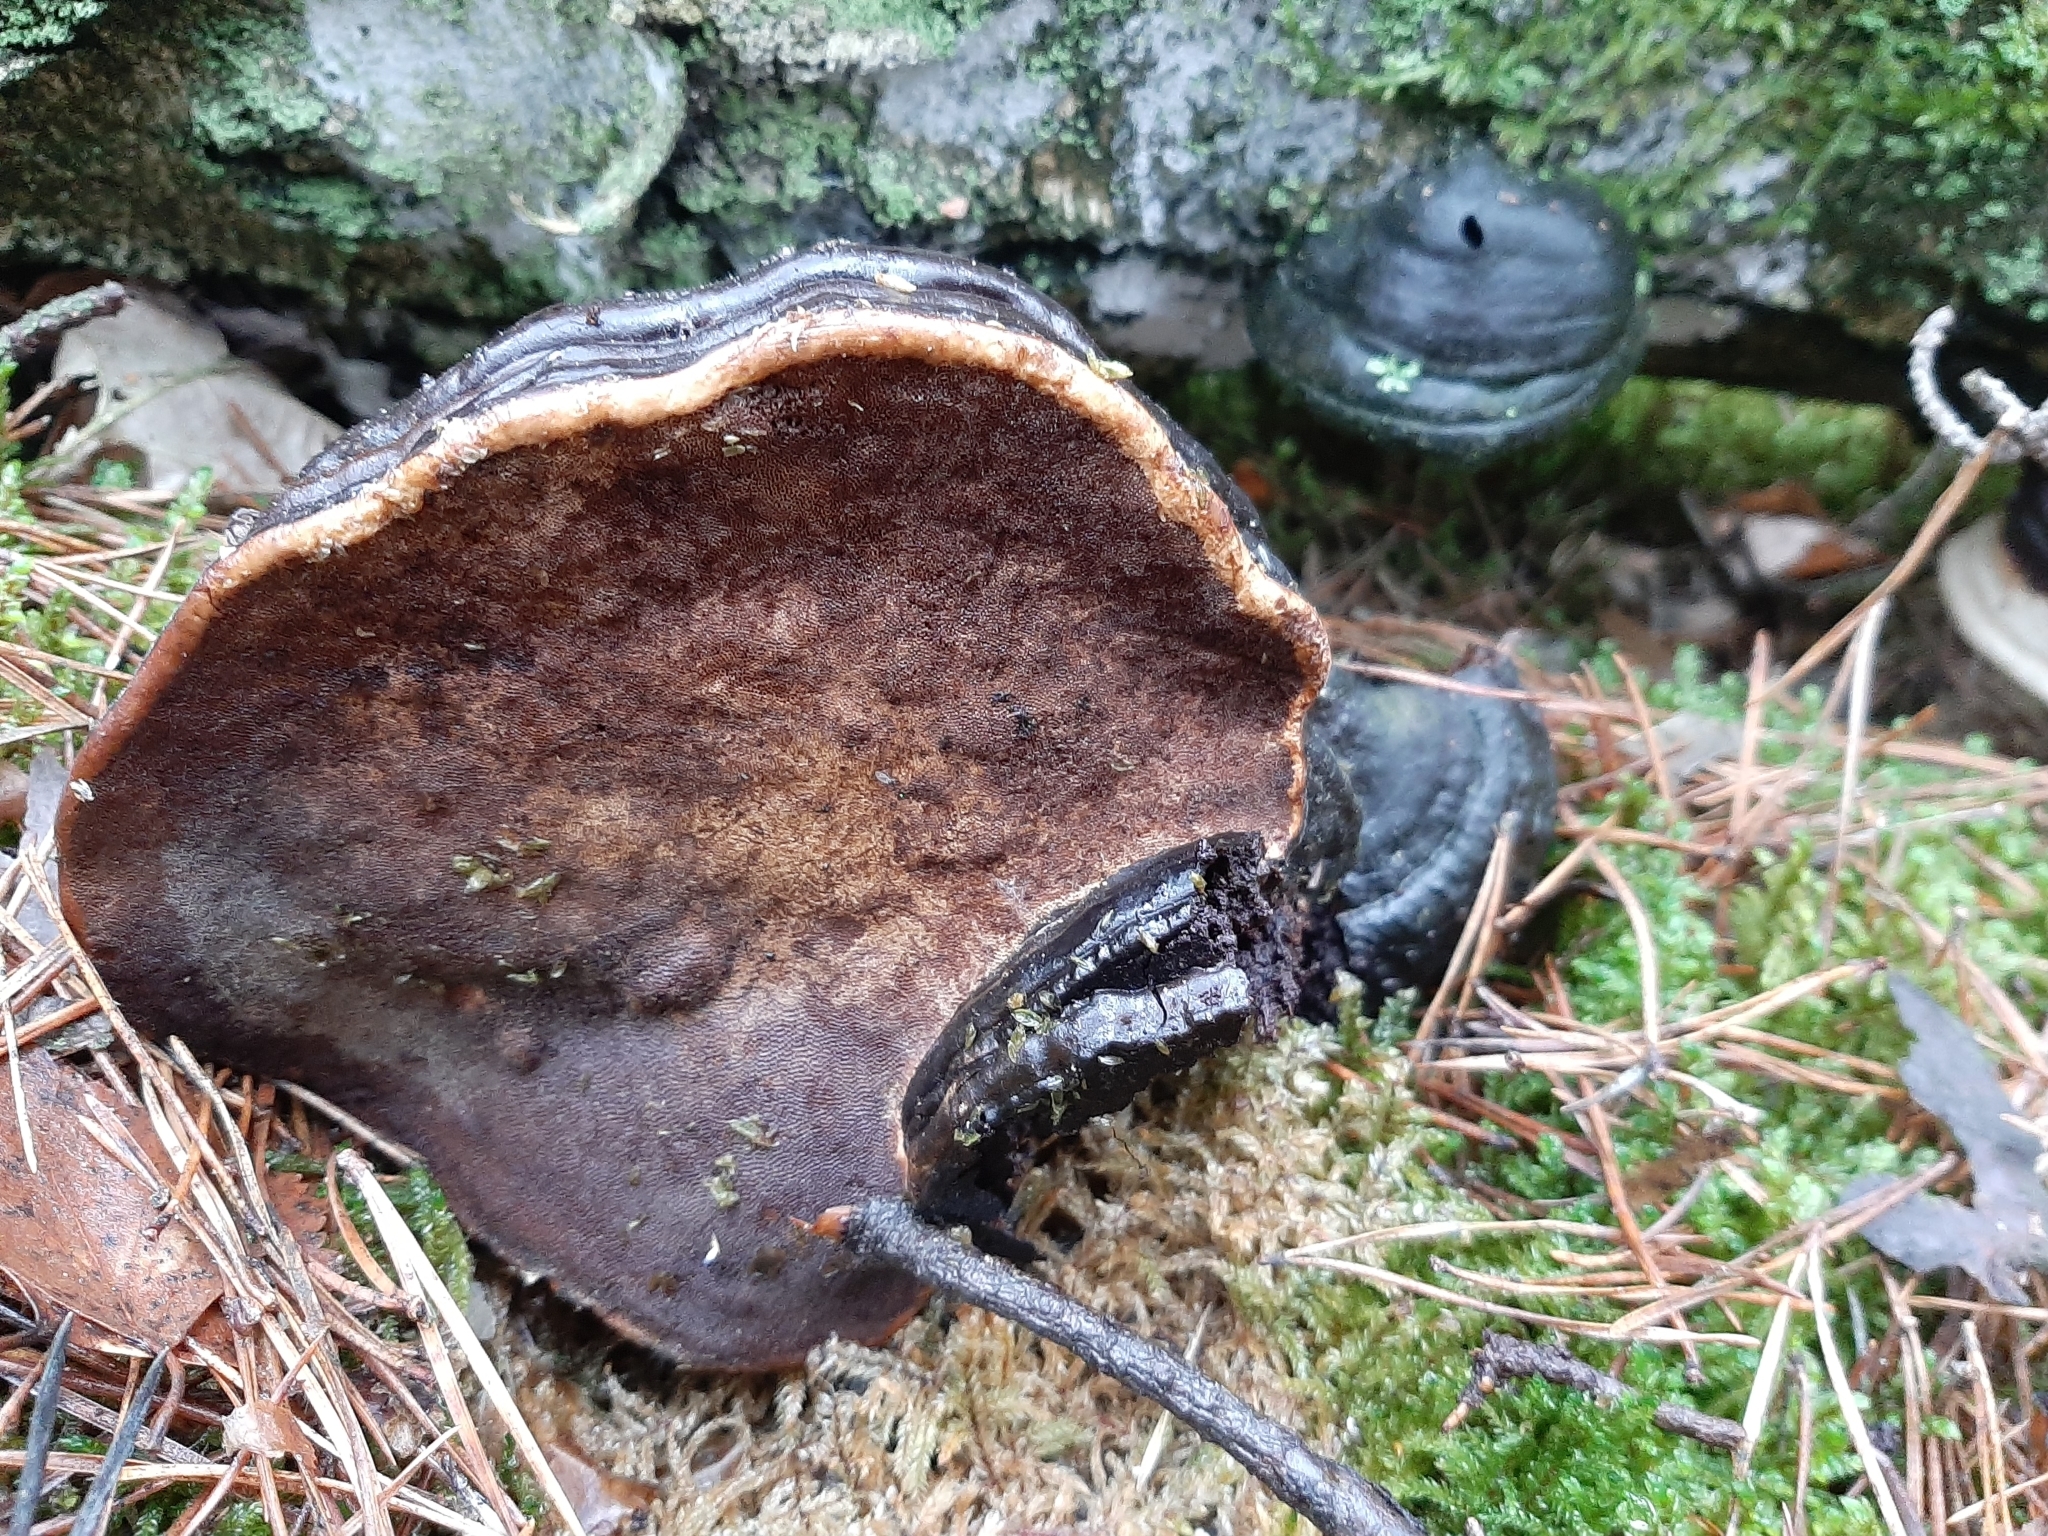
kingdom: Fungi
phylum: Basidiomycota
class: Agaricomycetes
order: Polyporales
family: Polyporaceae
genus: Fomes
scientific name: Fomes fomentarius
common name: Hoof fungus
